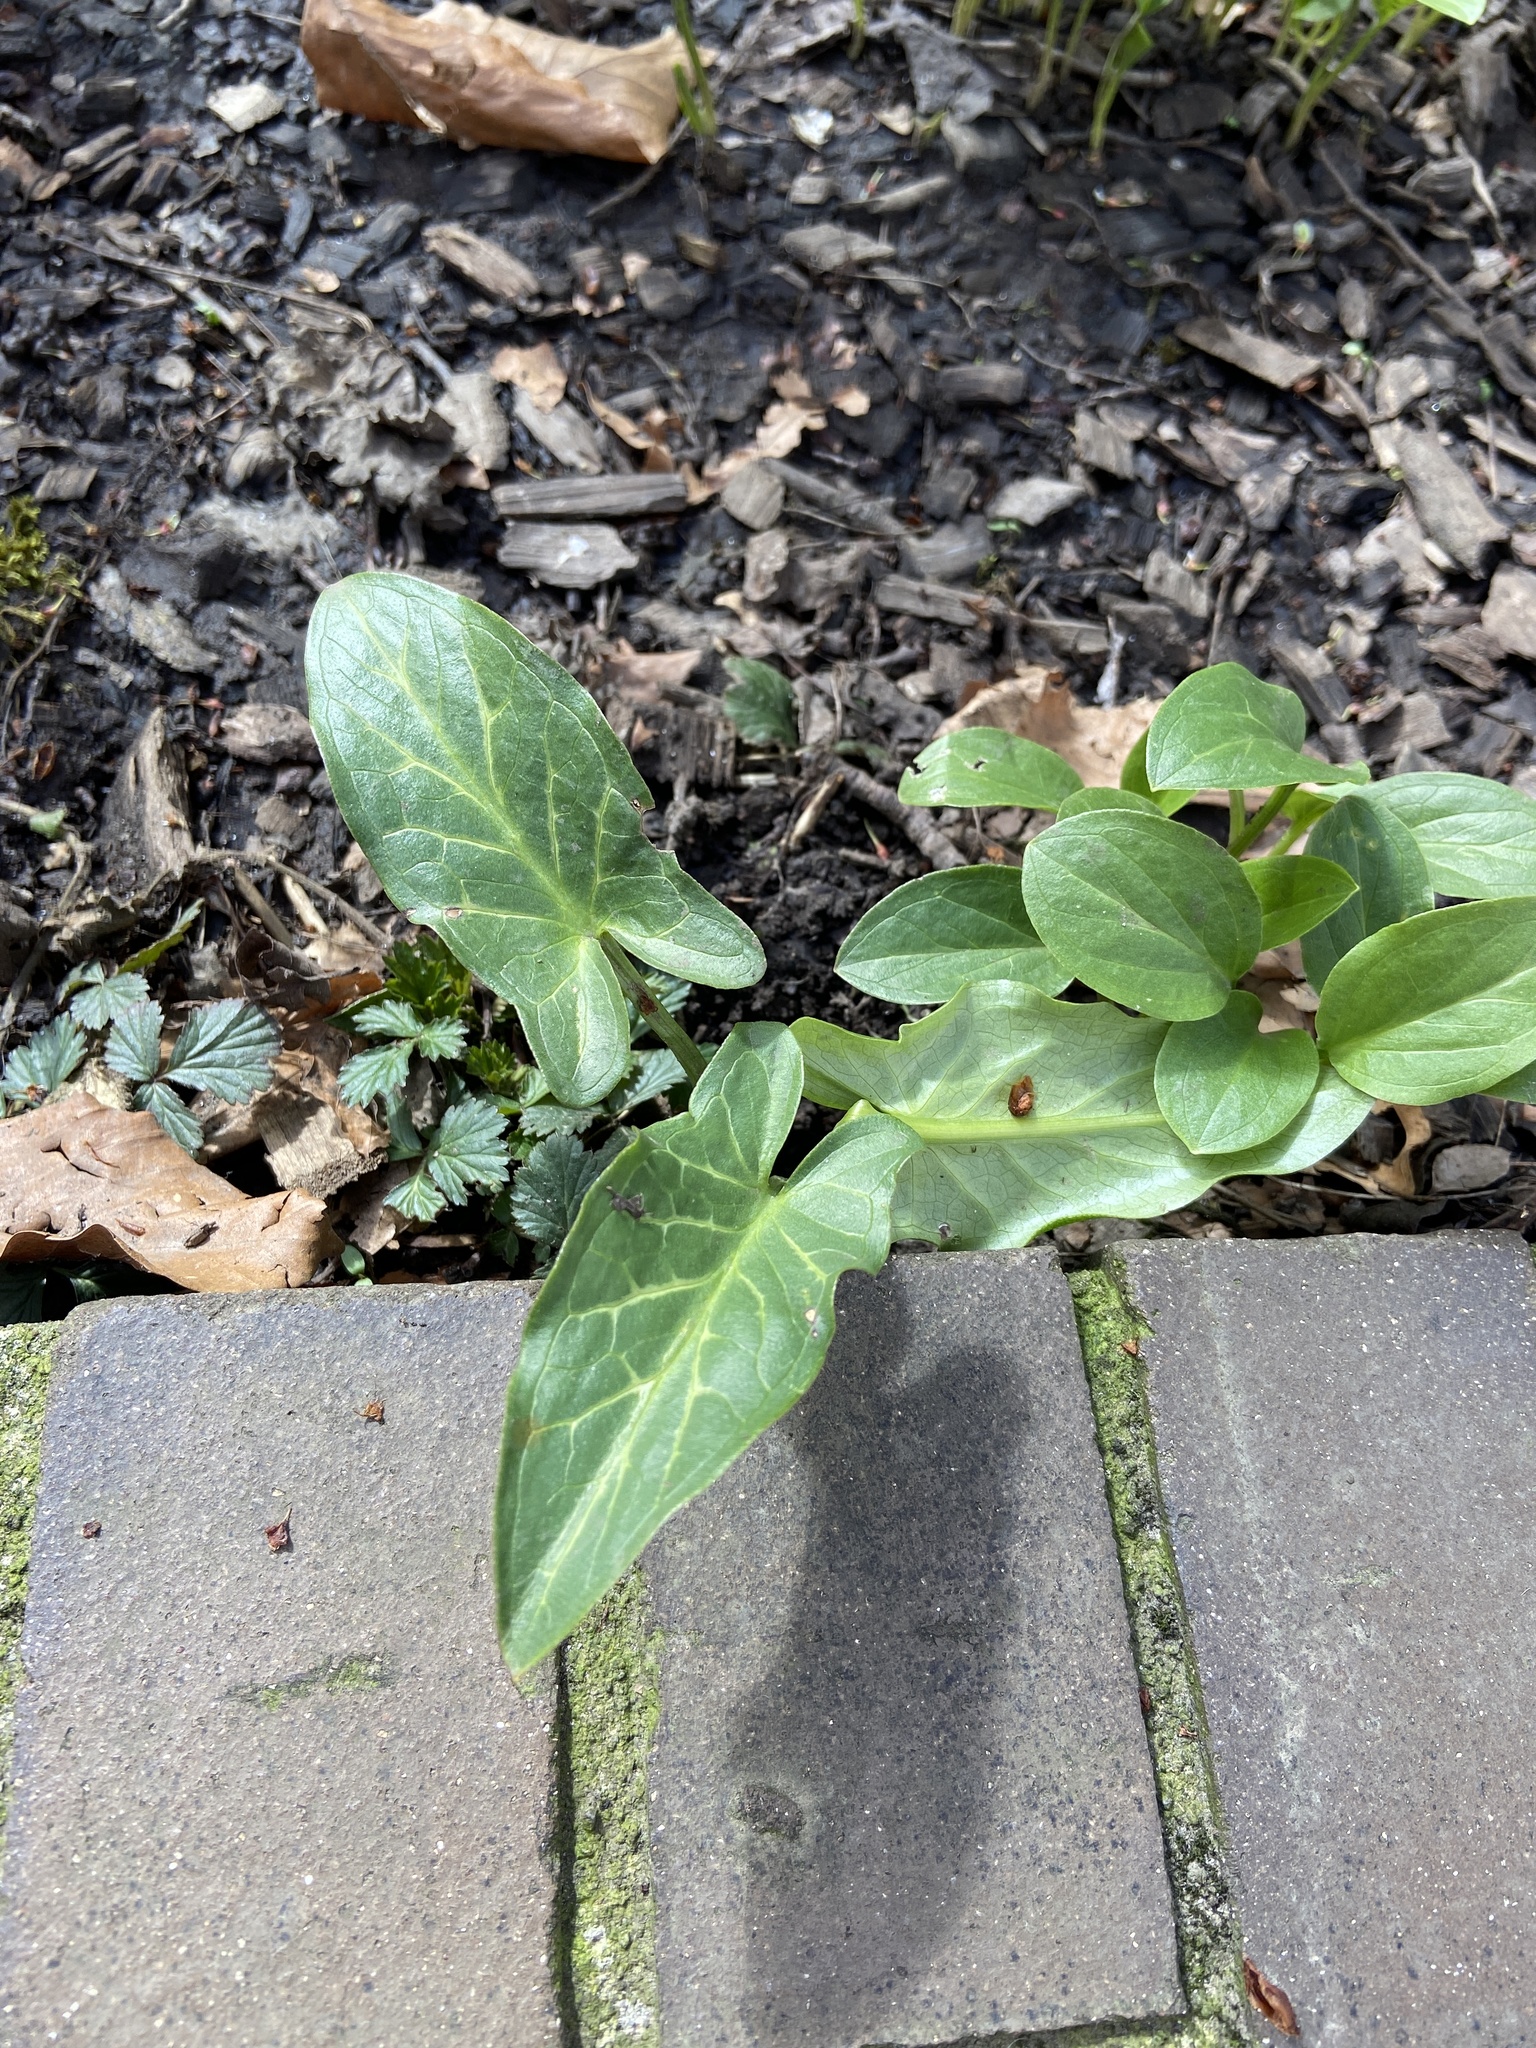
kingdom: Plantae
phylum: Tracheophyta
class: Liliopsida
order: Alismatales
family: Araceae
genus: Arum
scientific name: Arum italicum
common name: Italian lords-and-ladies
